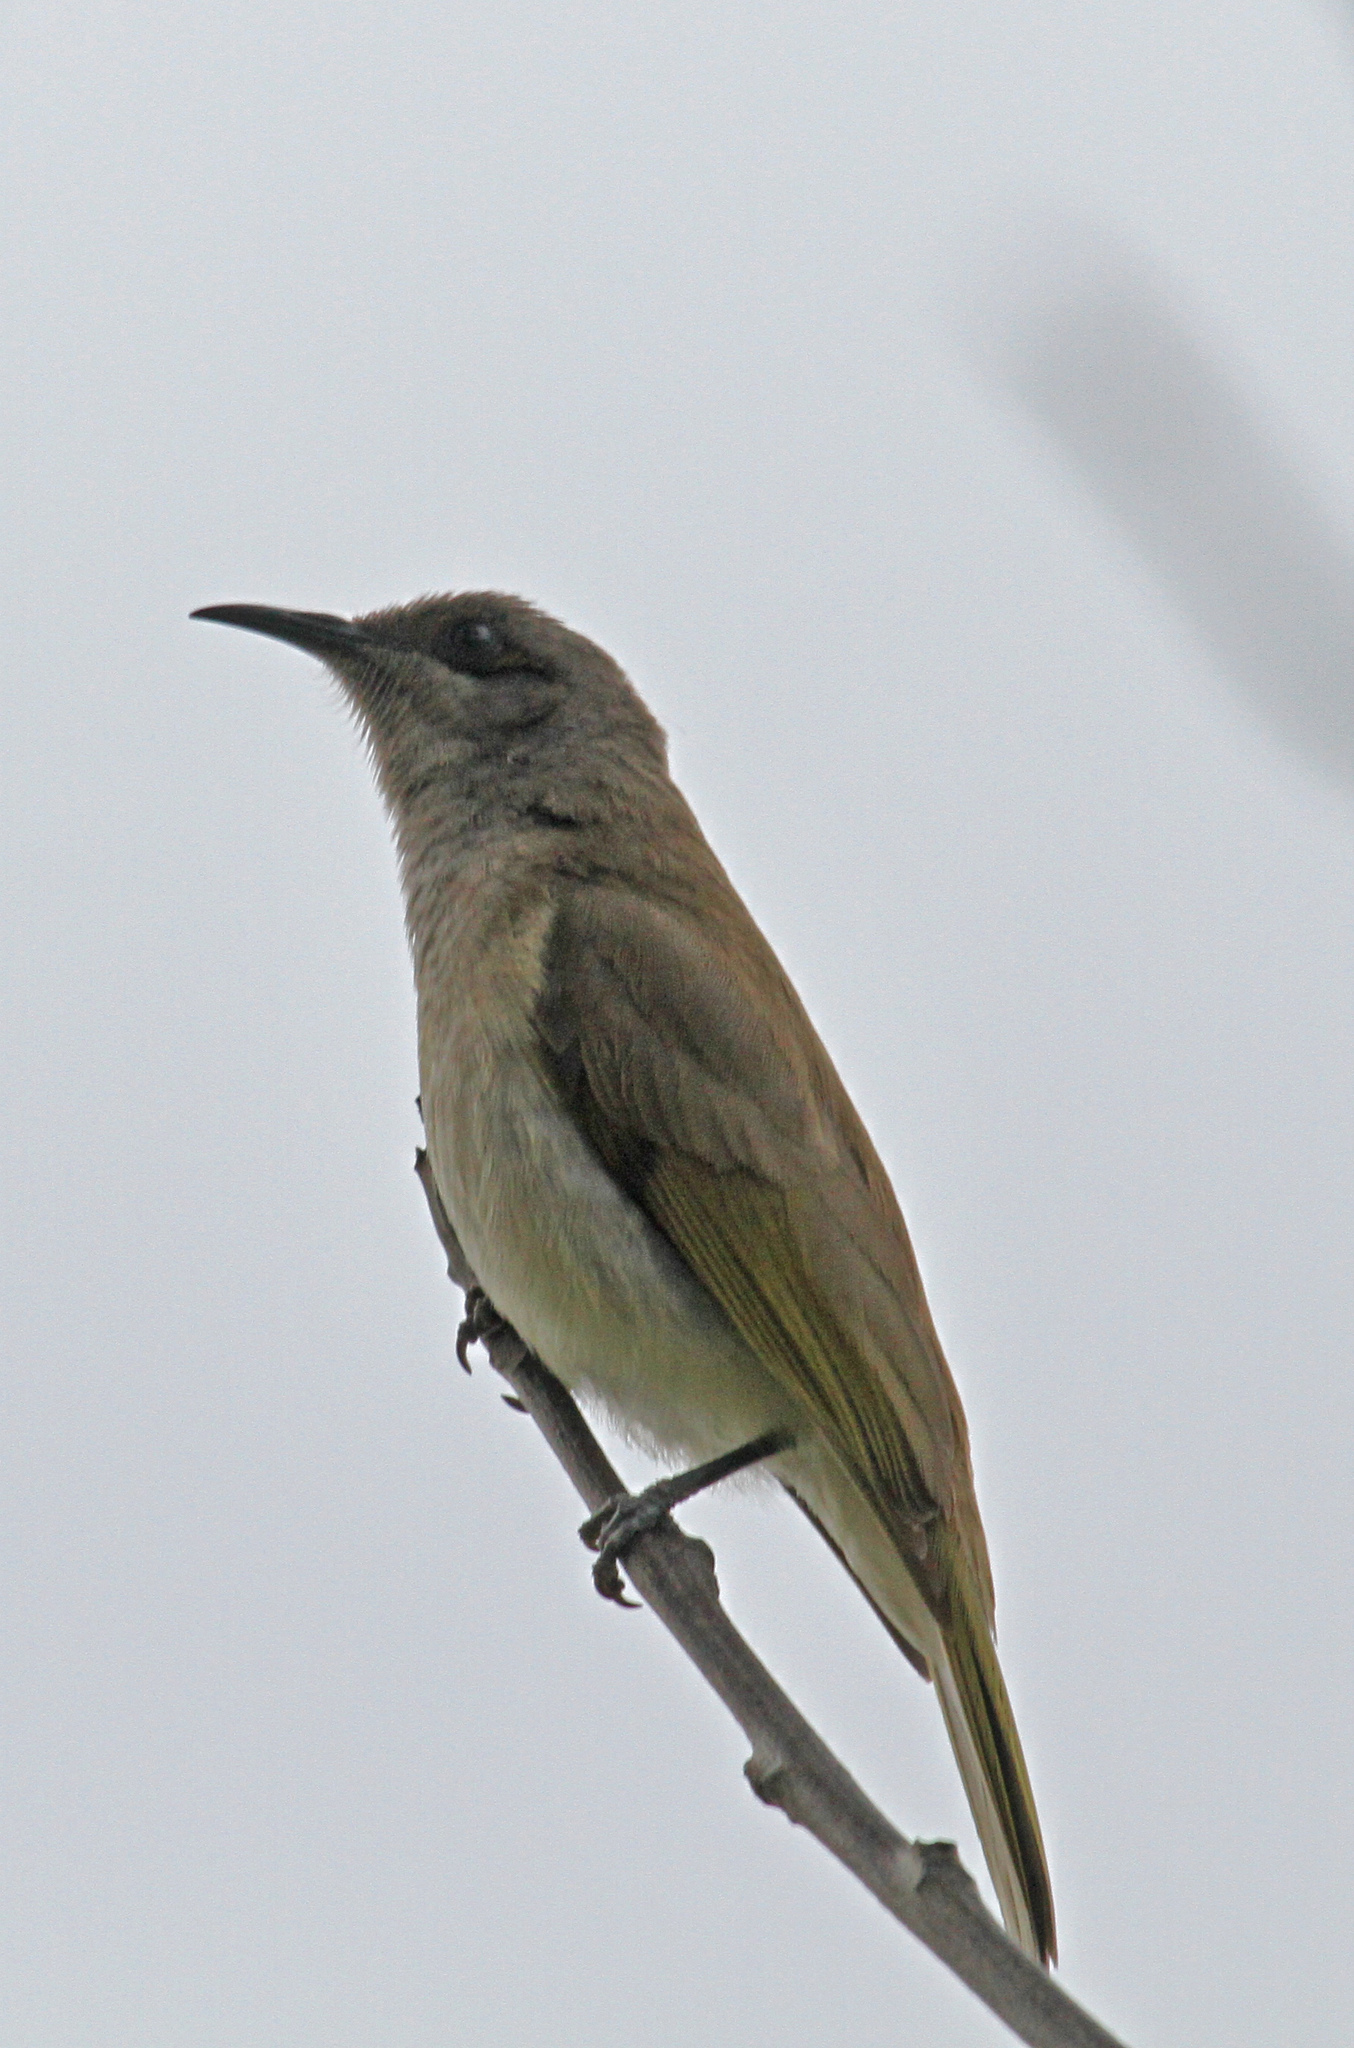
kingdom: Animalia
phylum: Chordata
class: Aves
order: Passeriformes
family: Meliphagidae
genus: Lichmera
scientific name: Lichmera indistincta
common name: Brown honeyeater
